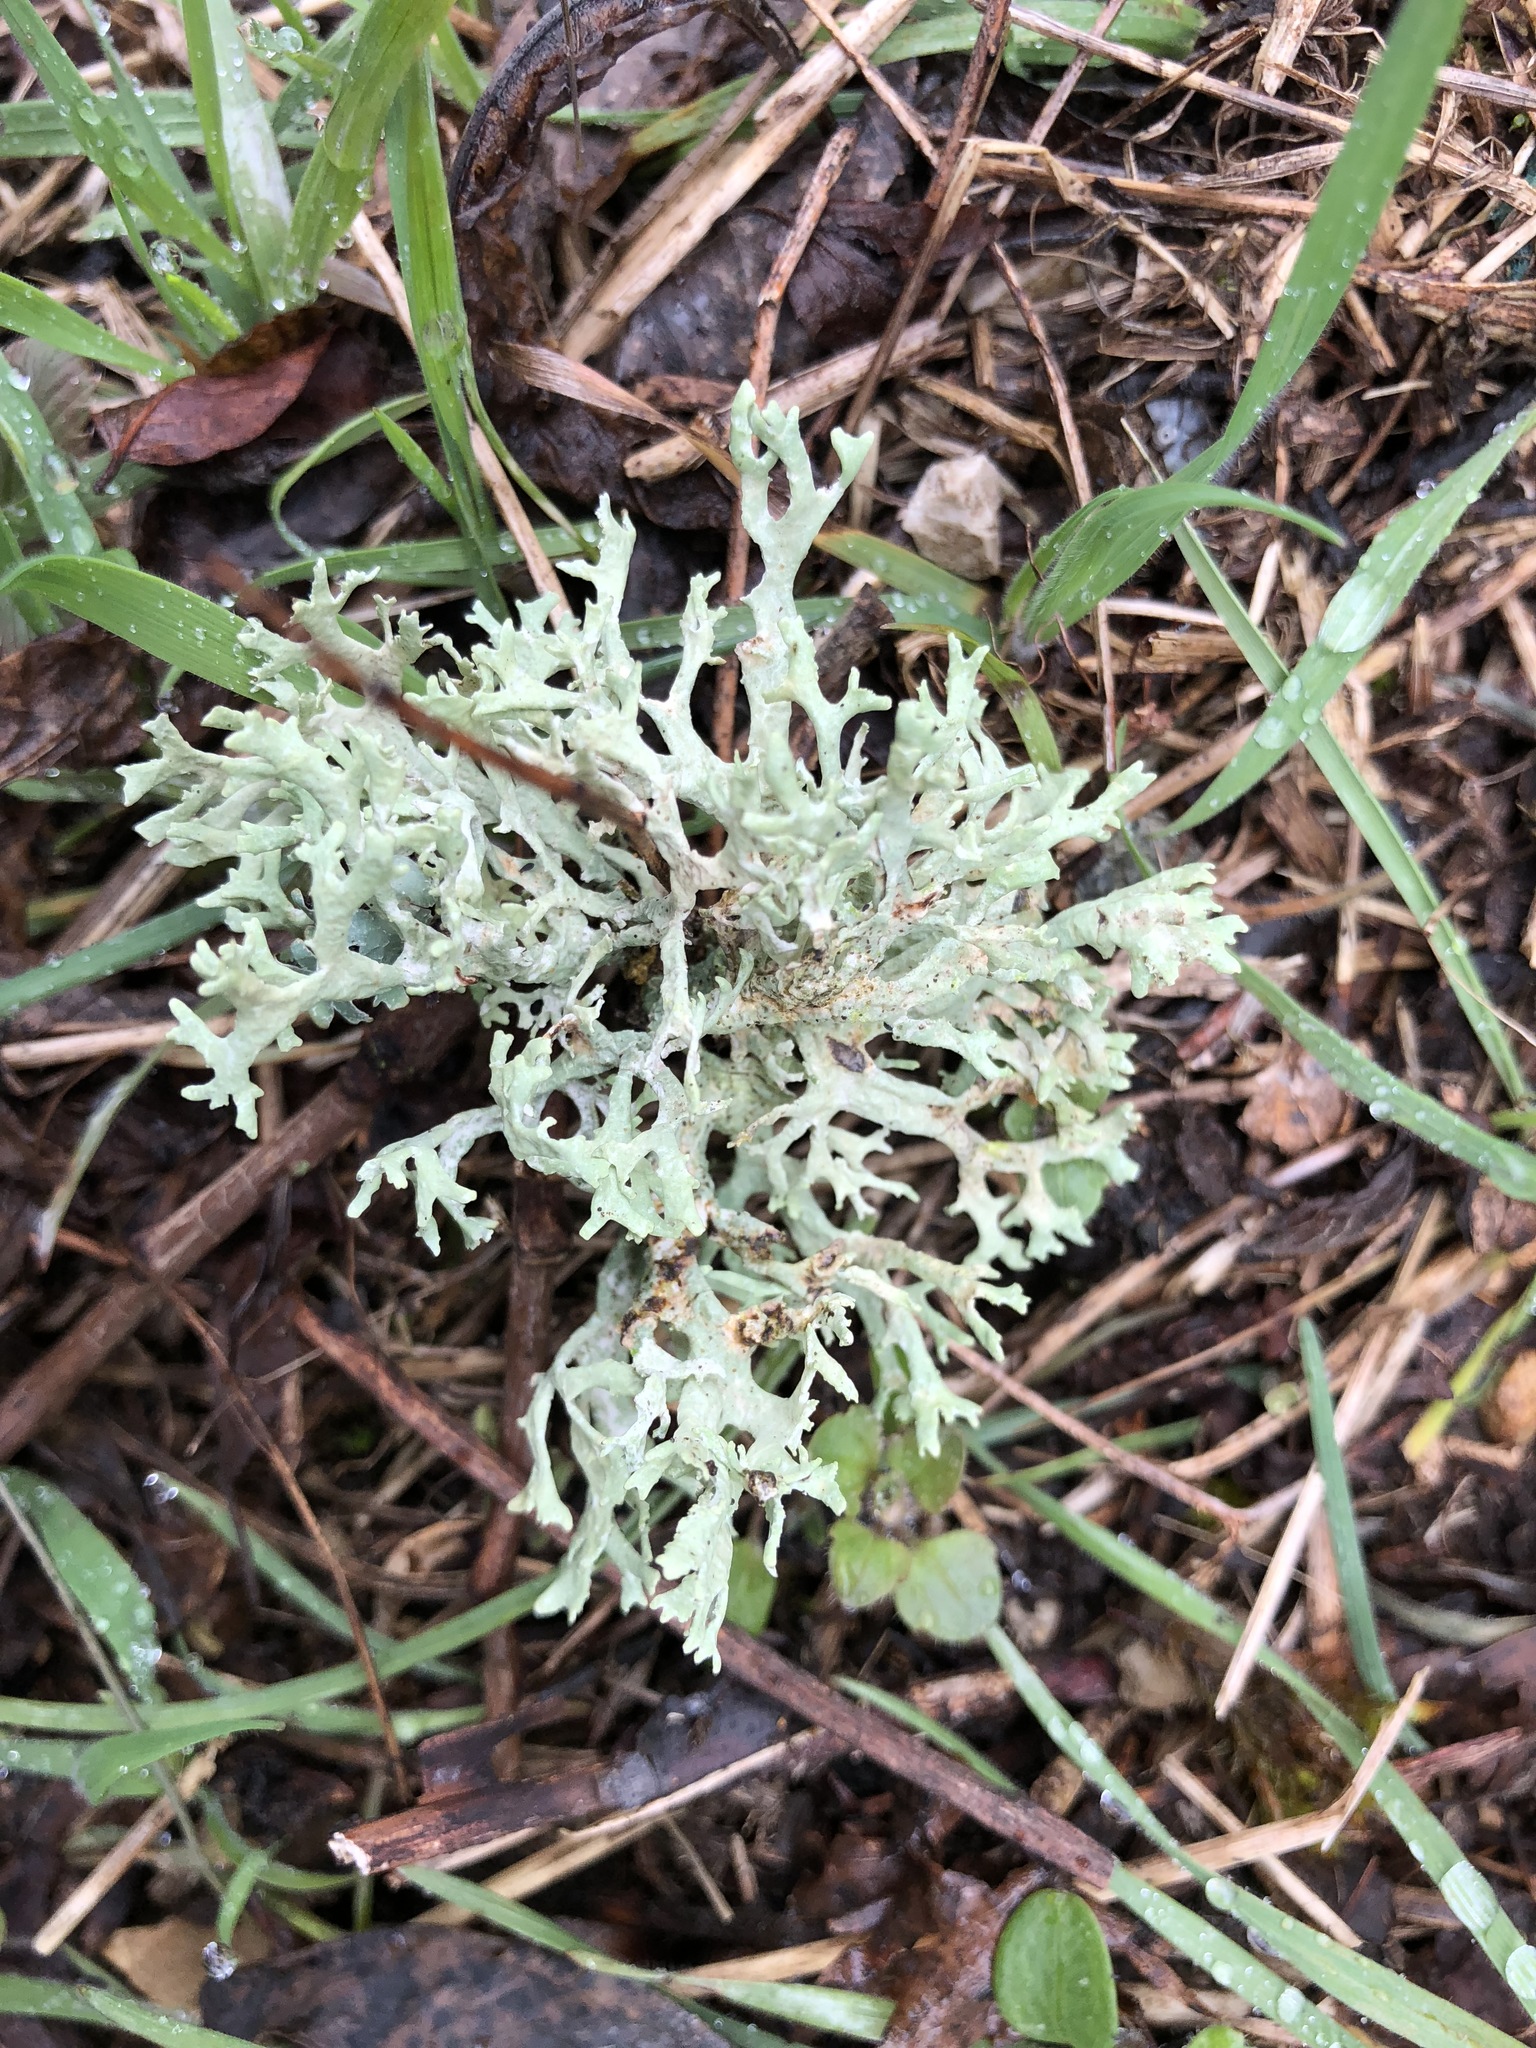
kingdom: Fungi
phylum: Ascomycota
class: Lecanoromycetes
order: Lecanorales
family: Parmeliaceae
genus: Evernia
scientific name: Evernia prunastri
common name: Oak moss
